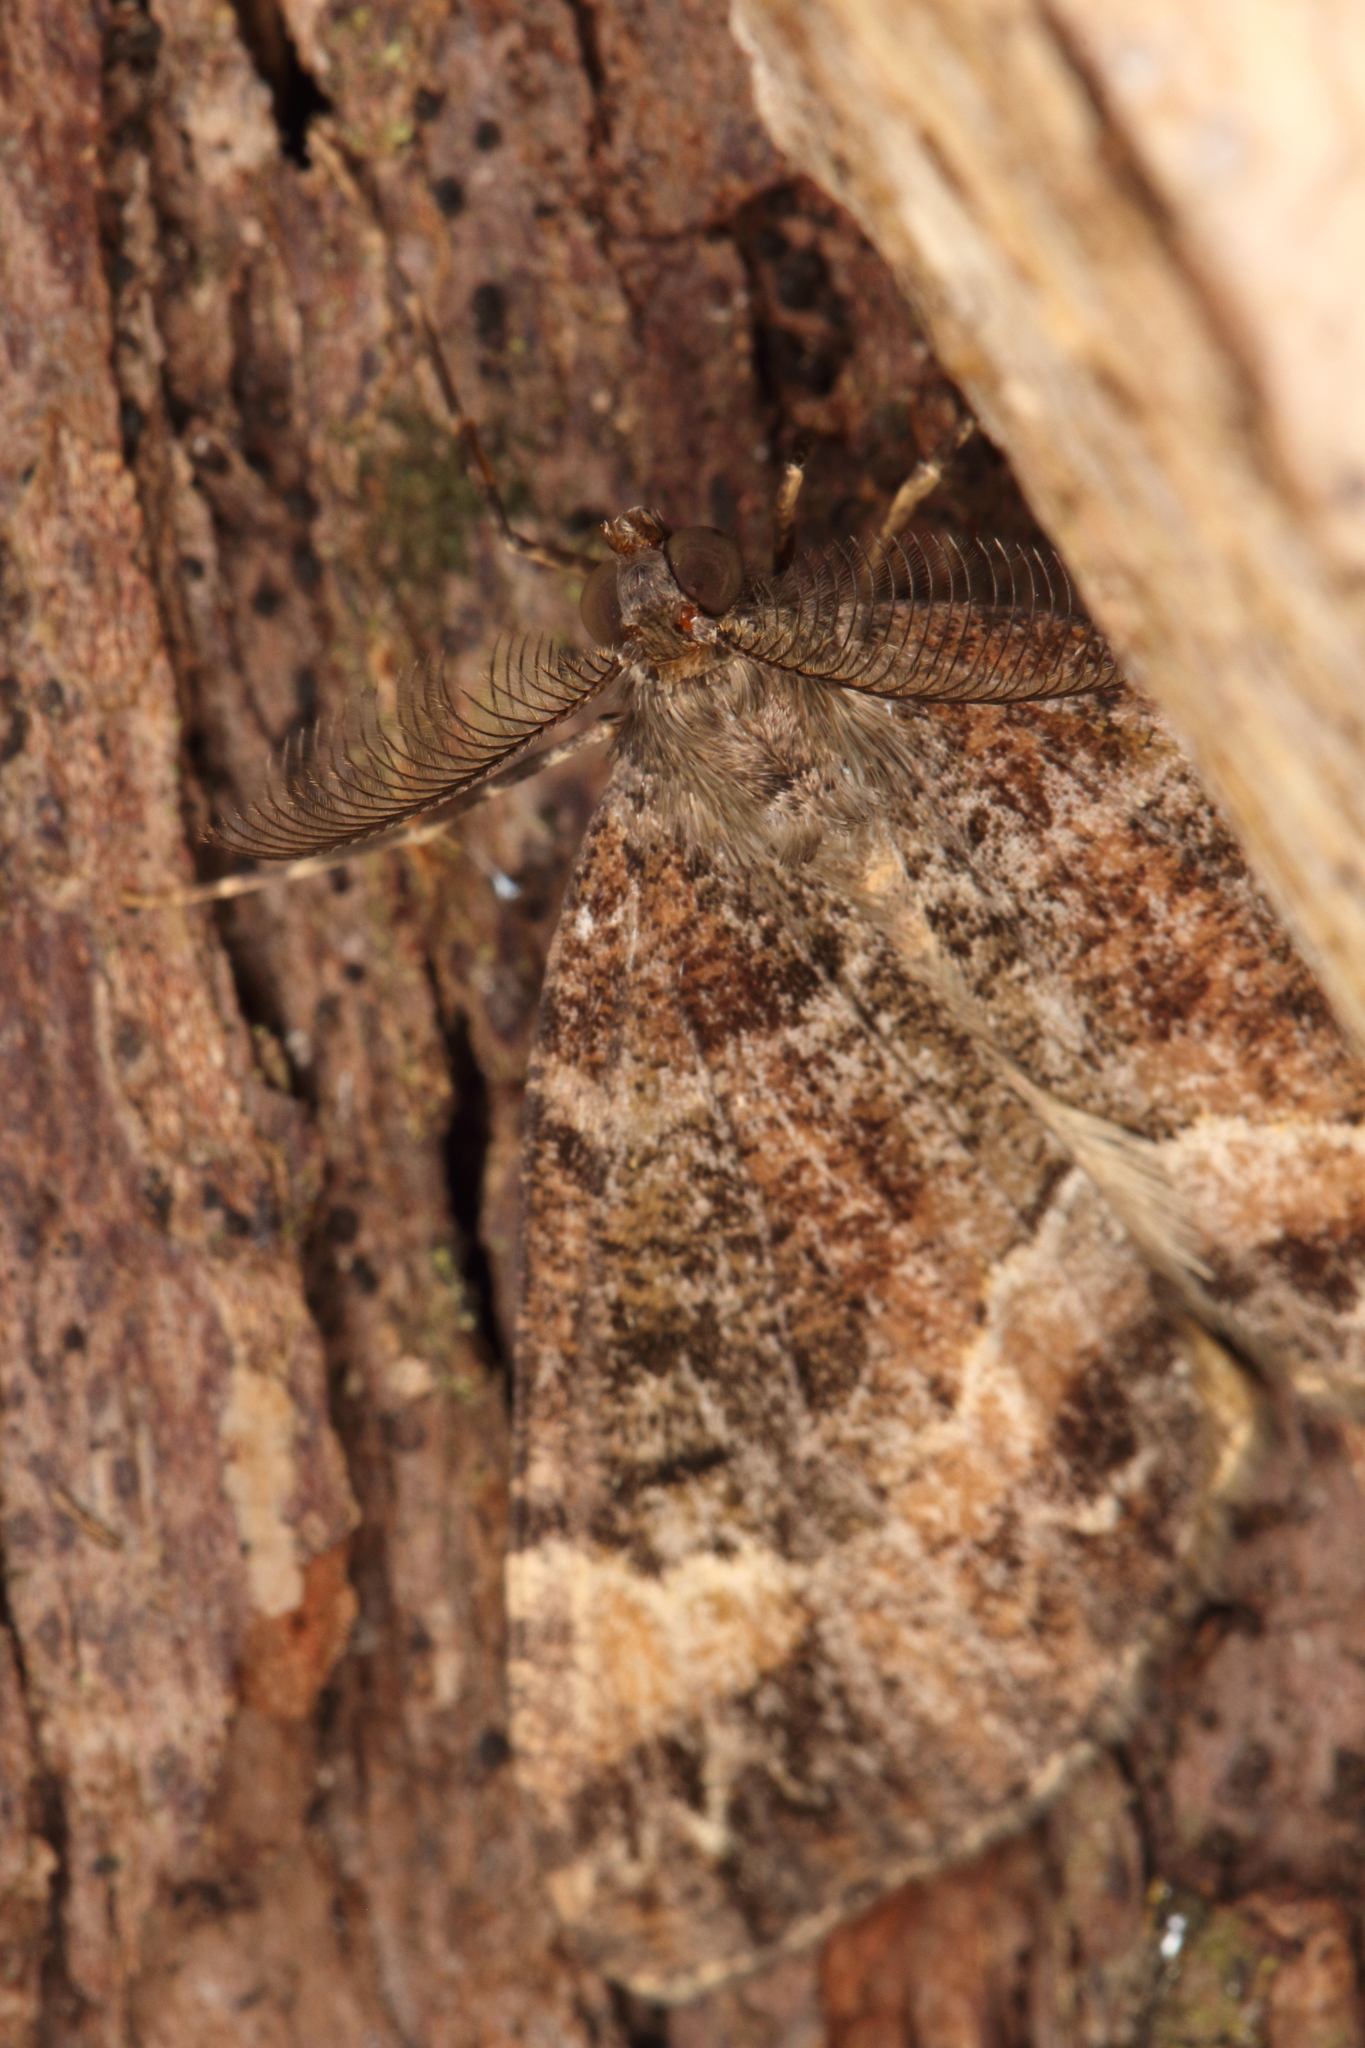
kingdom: Animalia
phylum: Arthropoda
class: Insecta
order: Lepidoptera
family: Geometridae
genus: Pseudocoremia
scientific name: Pseudocoremia productata
